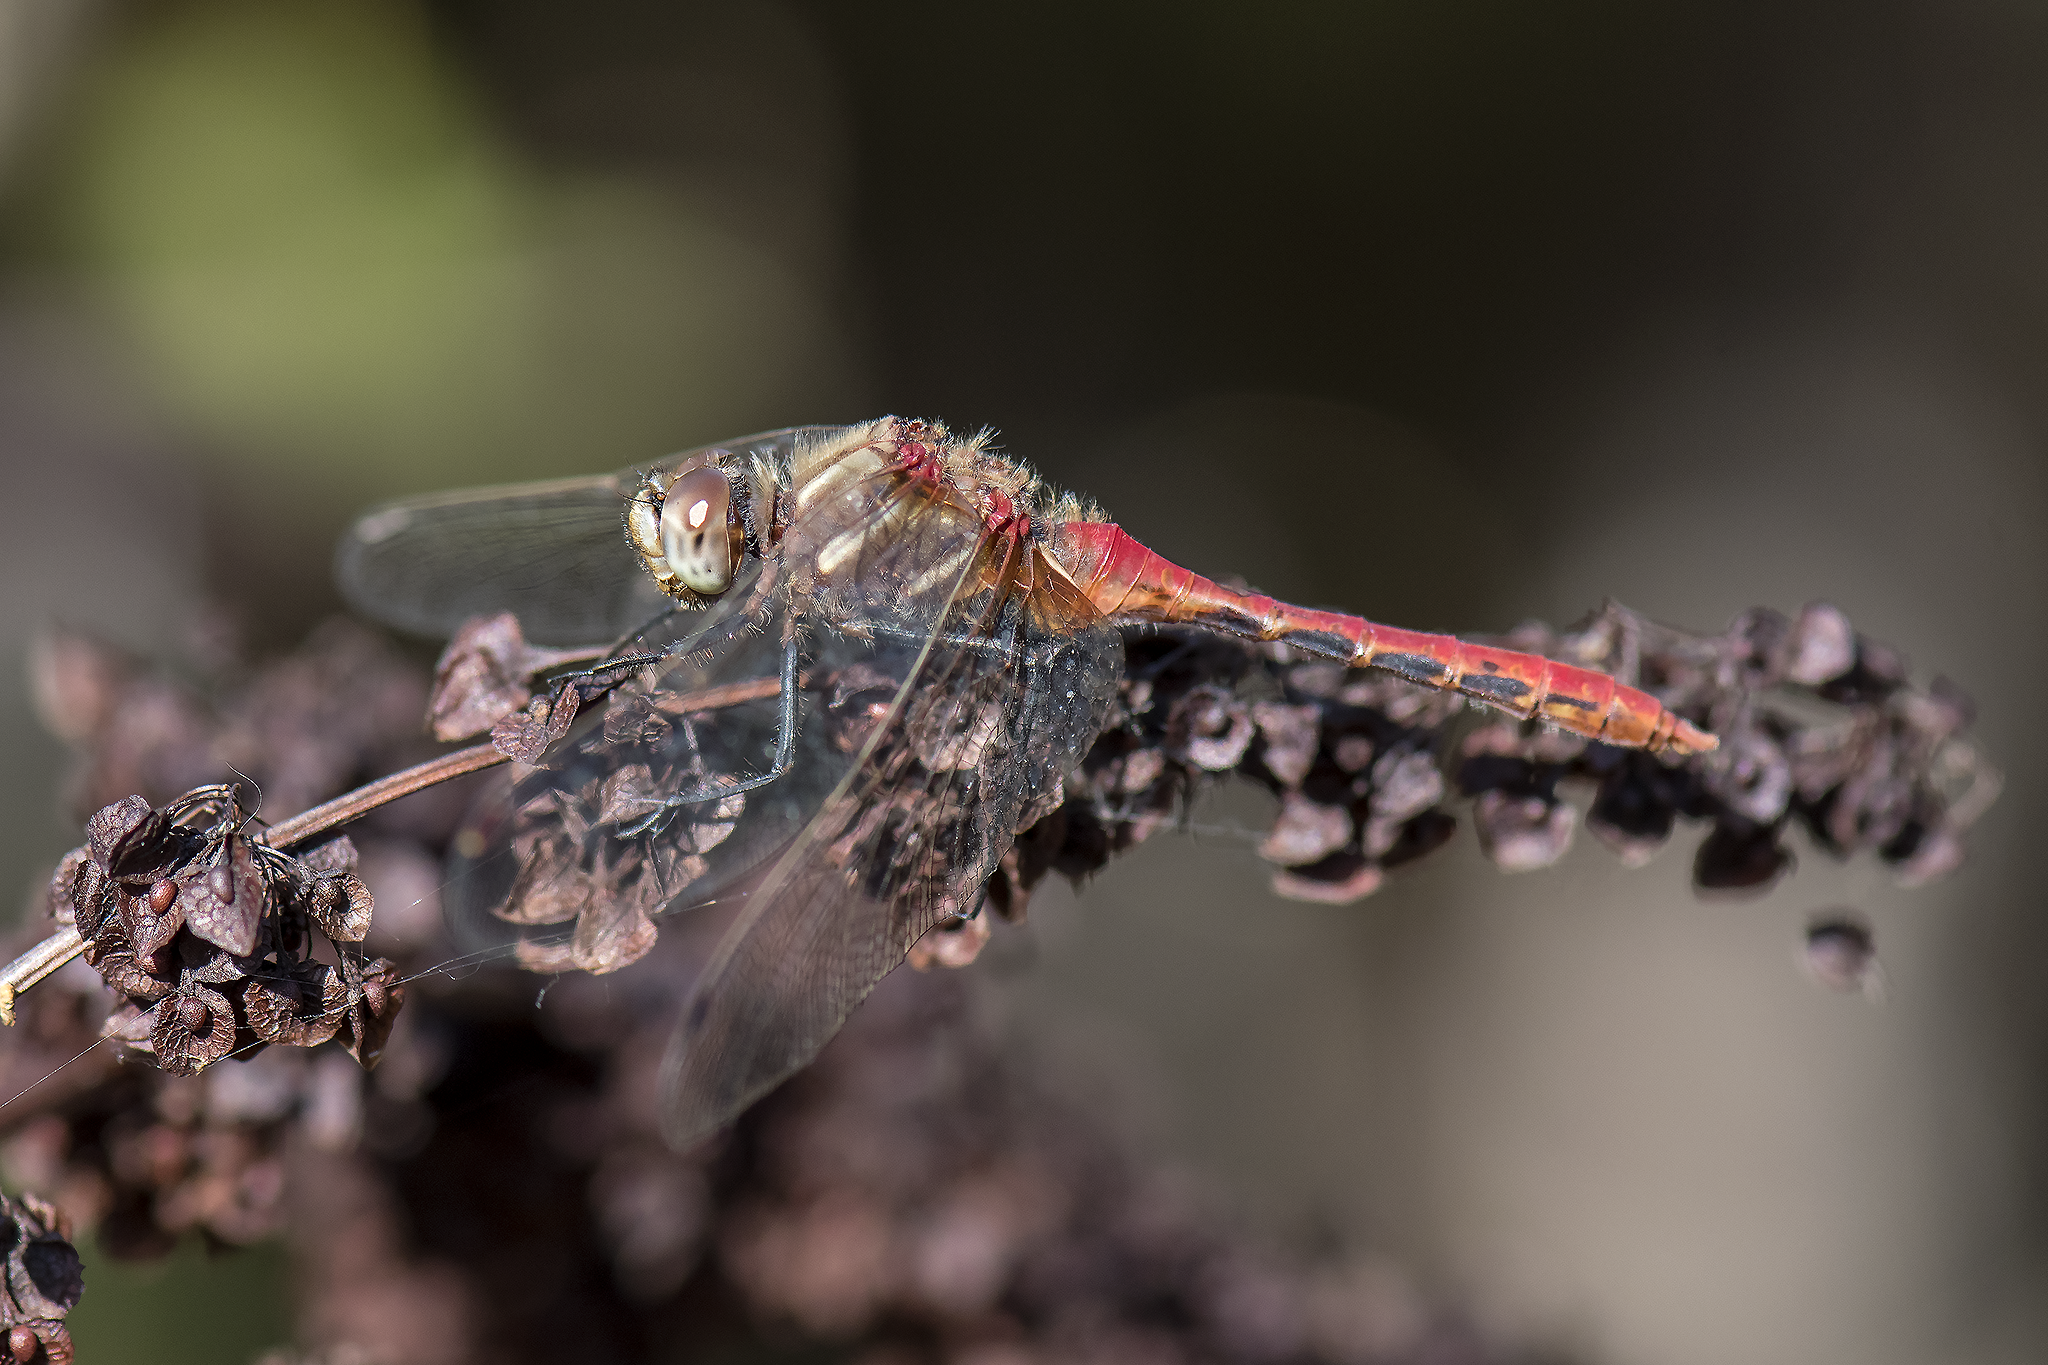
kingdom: Animalia
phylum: Arthropoda
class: Insecta
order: Odonata
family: Libellulidae
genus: Sympetrum
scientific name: Sympetrum pallipes
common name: Striped meadowhawk
